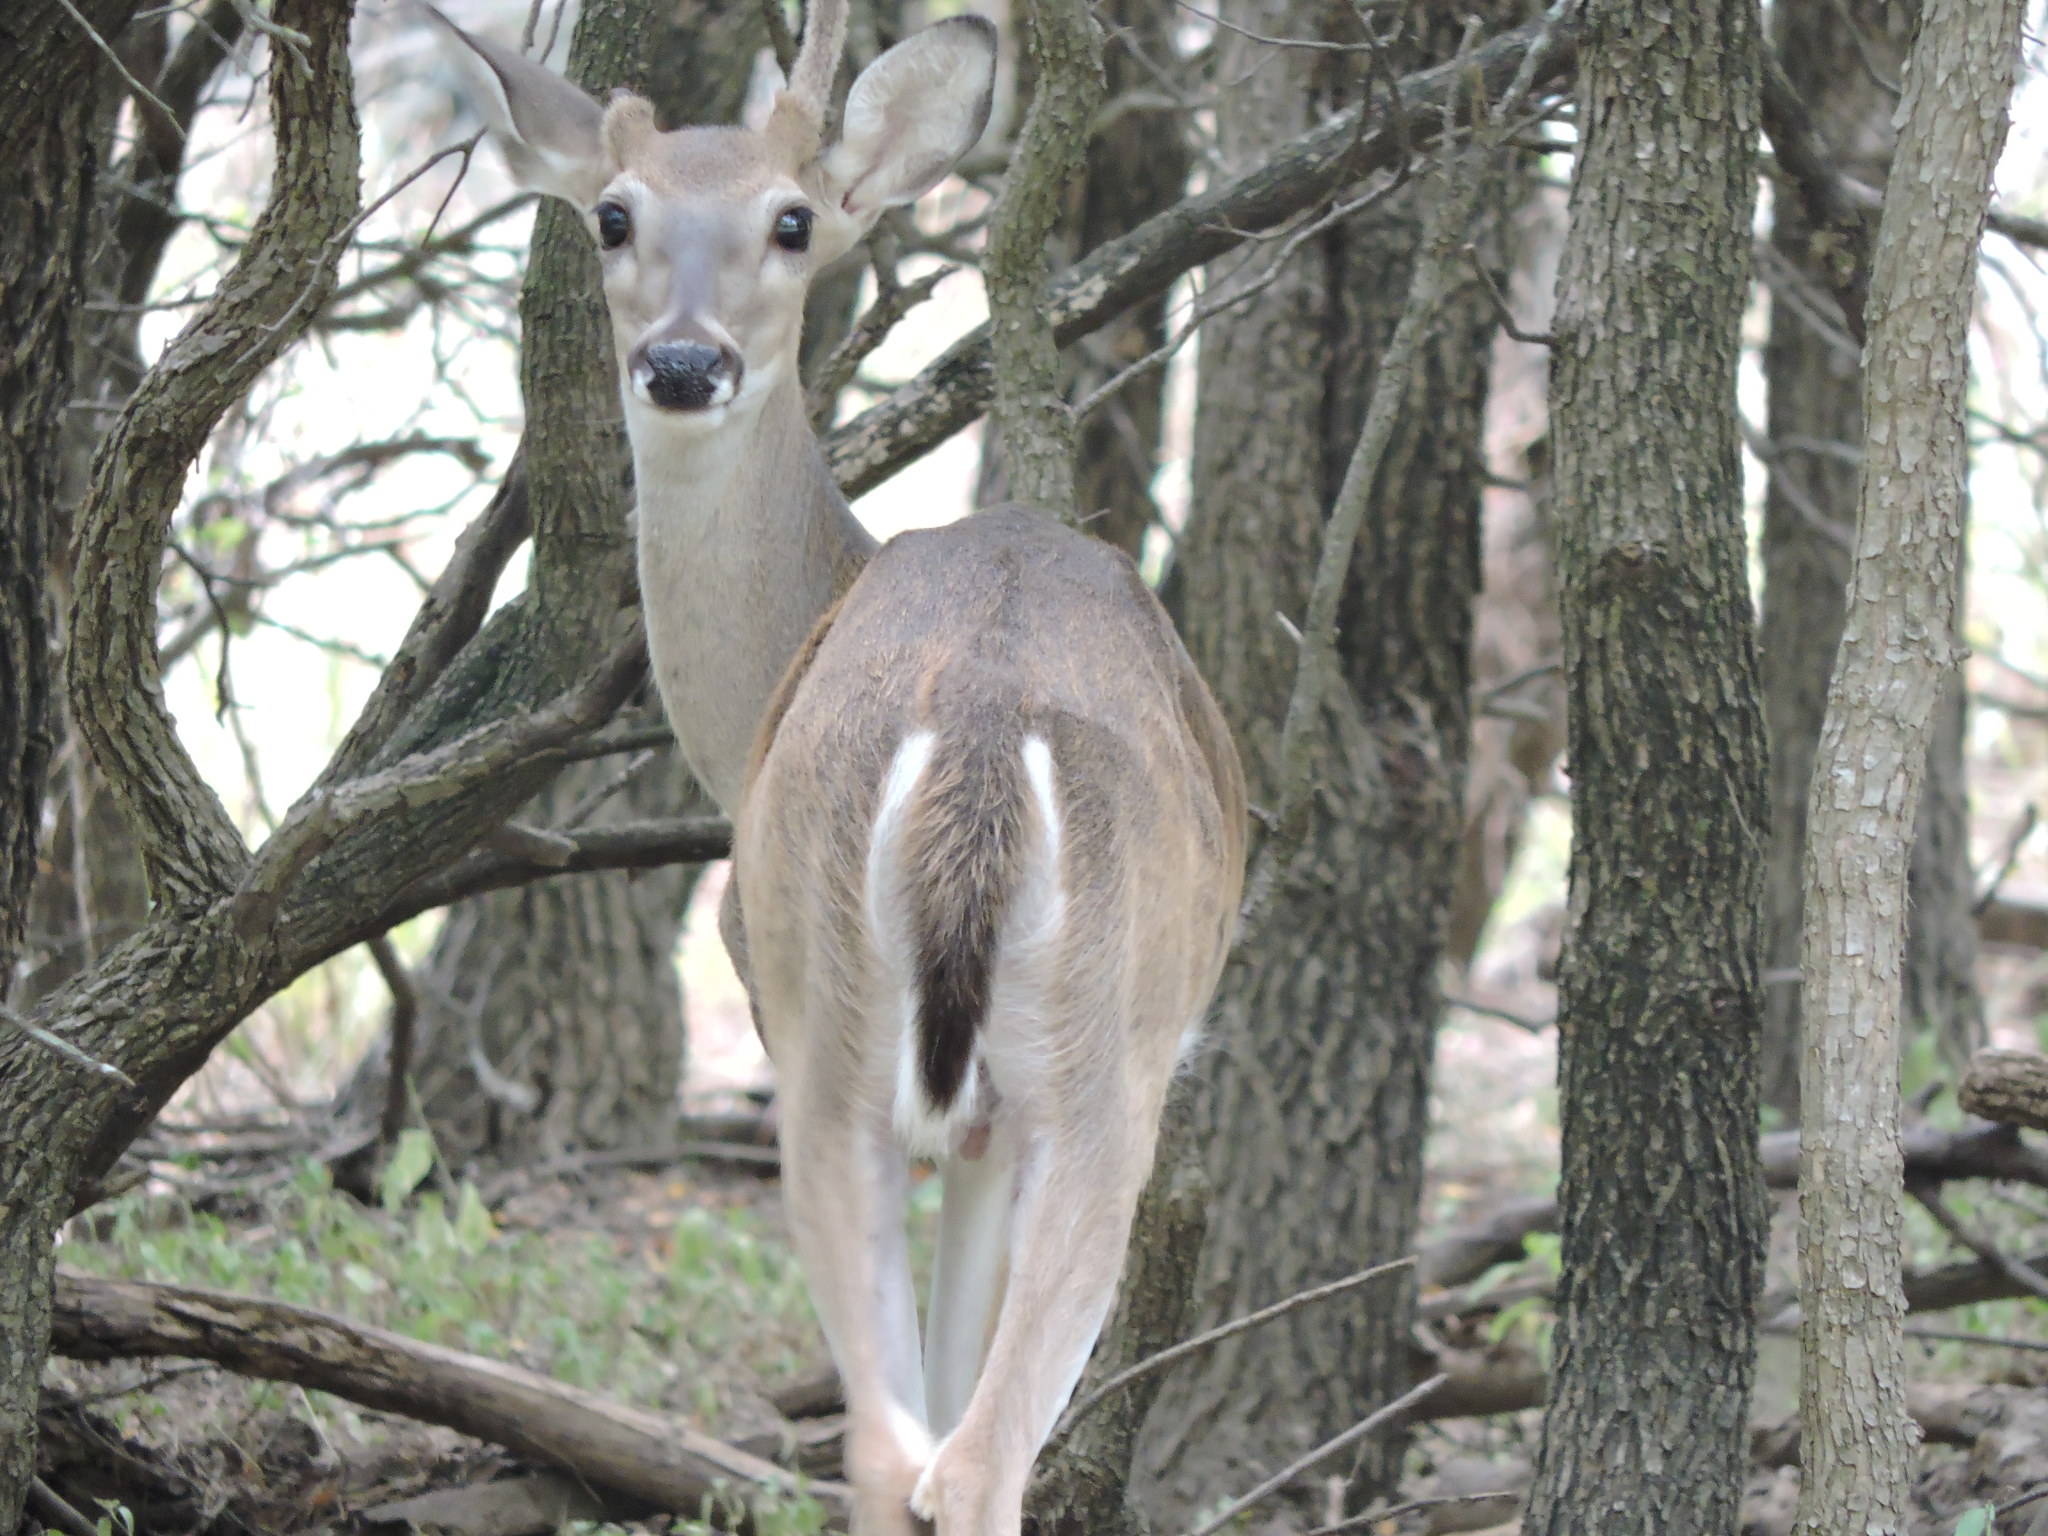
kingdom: Animalia
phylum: Chordata
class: Mammalia
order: Artiodactyla
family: Cervidae
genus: Odocoileus
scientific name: Odocoileus virginianus
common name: White-tailed deer
